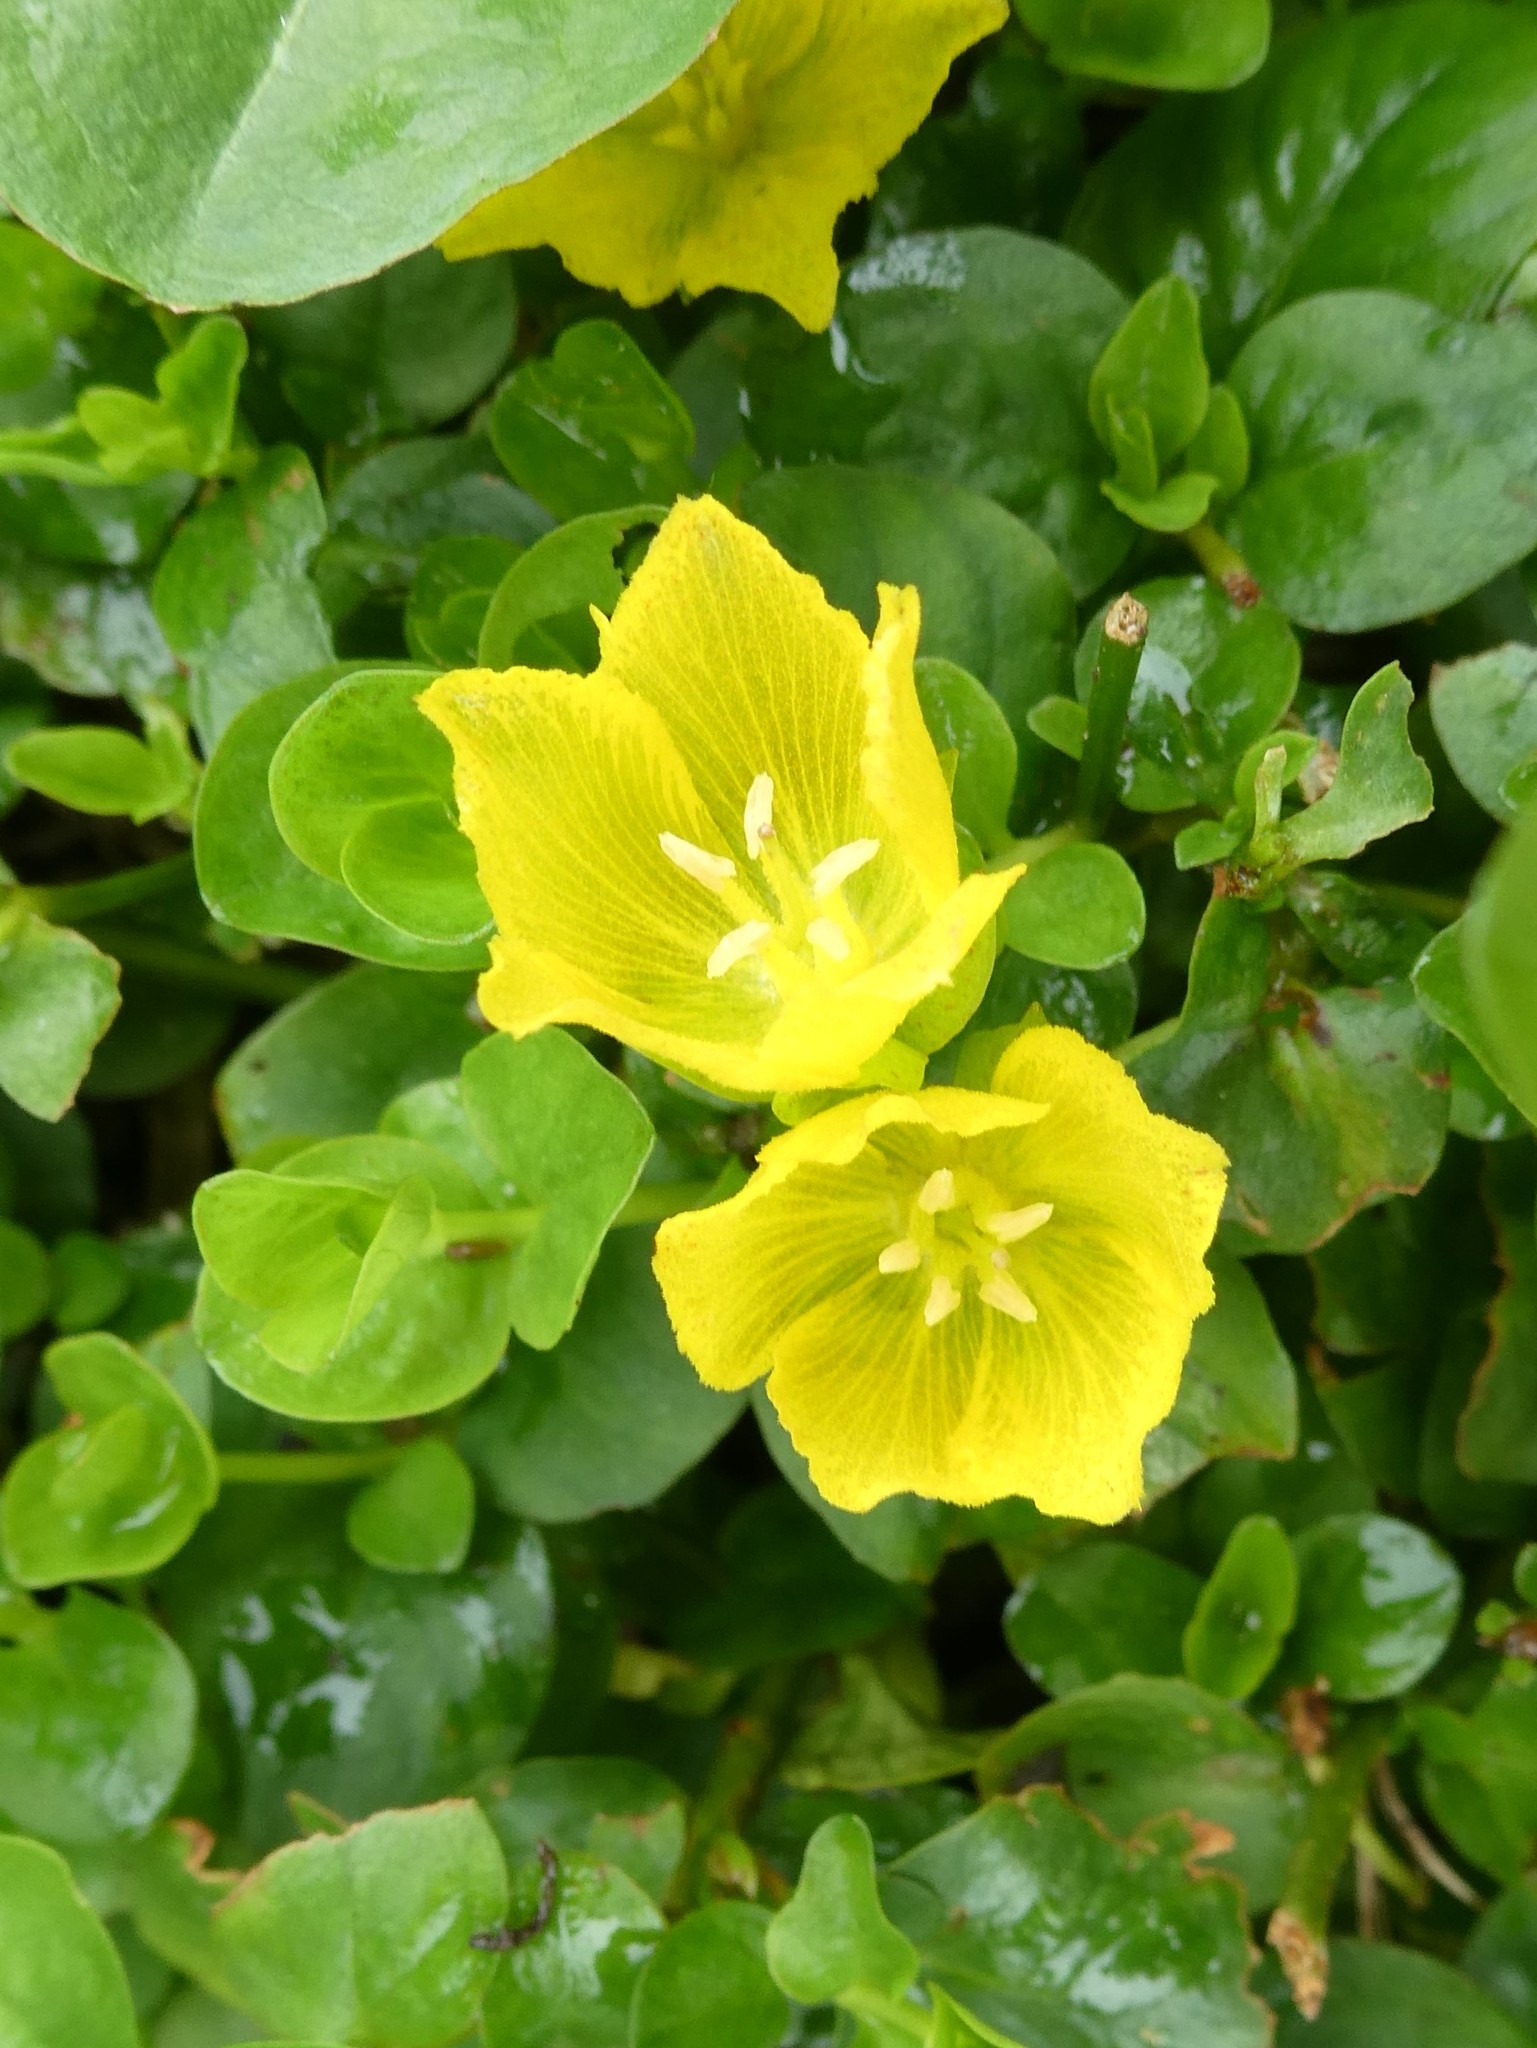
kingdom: Plantae
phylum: Tracheophyta
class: Magnoliopsida
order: Ericales
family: Primulaceae
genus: Lysimachia
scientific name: Lysimachia nummularia
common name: Moneywort
